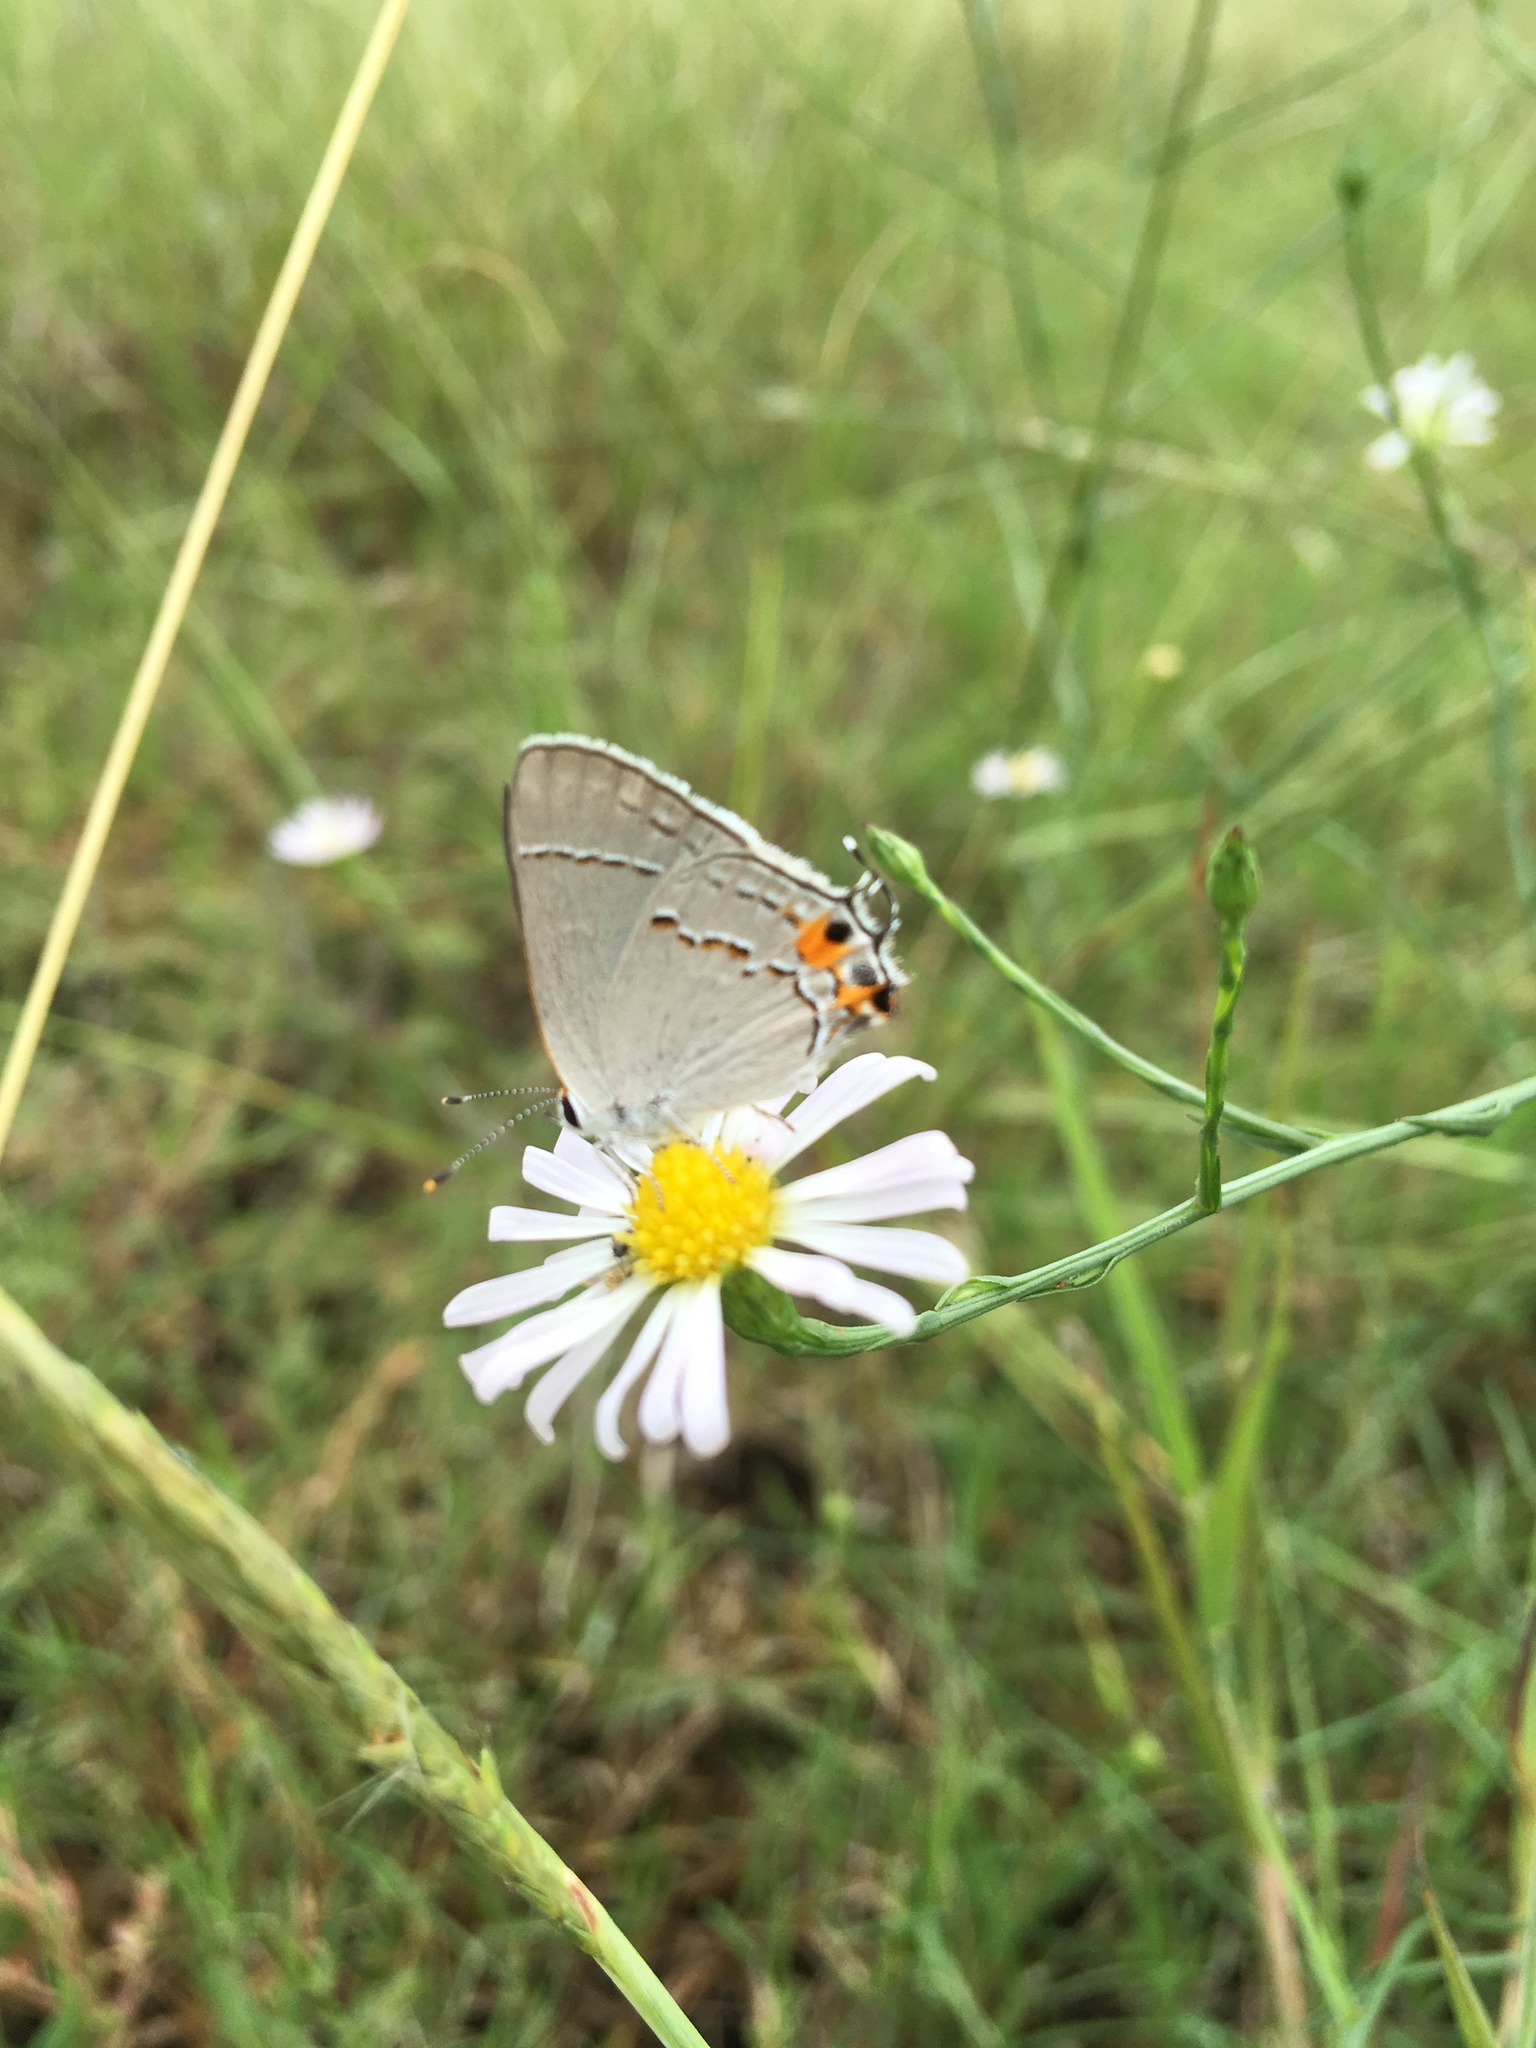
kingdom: Animalia
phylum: Arthropoda
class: Insecta
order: Lepidoptera
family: Lycaenidae
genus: Strymon
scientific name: Strymon melinus
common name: Gray hairstreak
